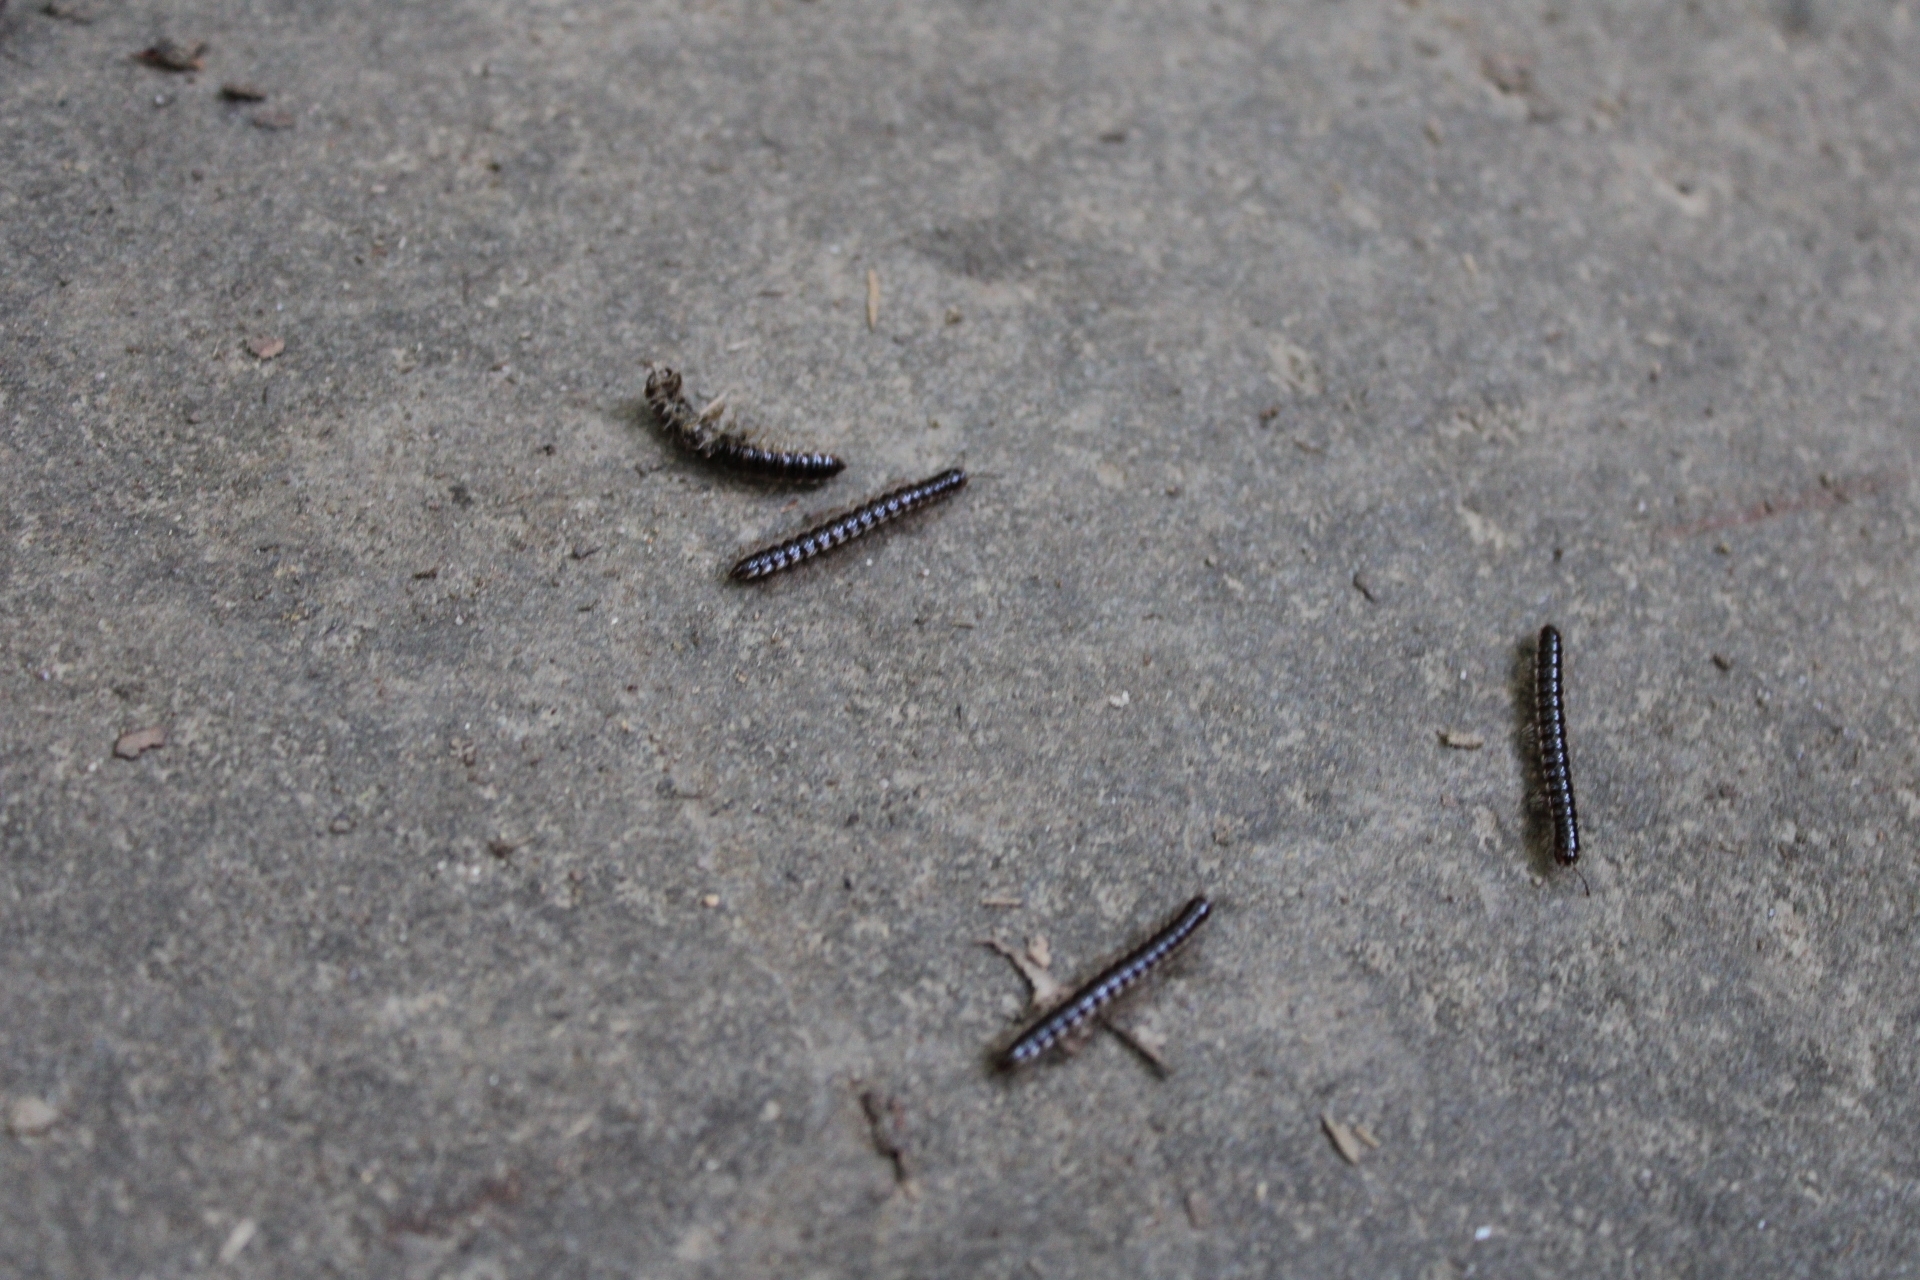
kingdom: Animalia
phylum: Arthropoda
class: Diplopoda
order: Polydesmida
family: Paradoxosomatidae
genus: Oxidus
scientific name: Oxidus gracilis
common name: Greenhouse millipede
